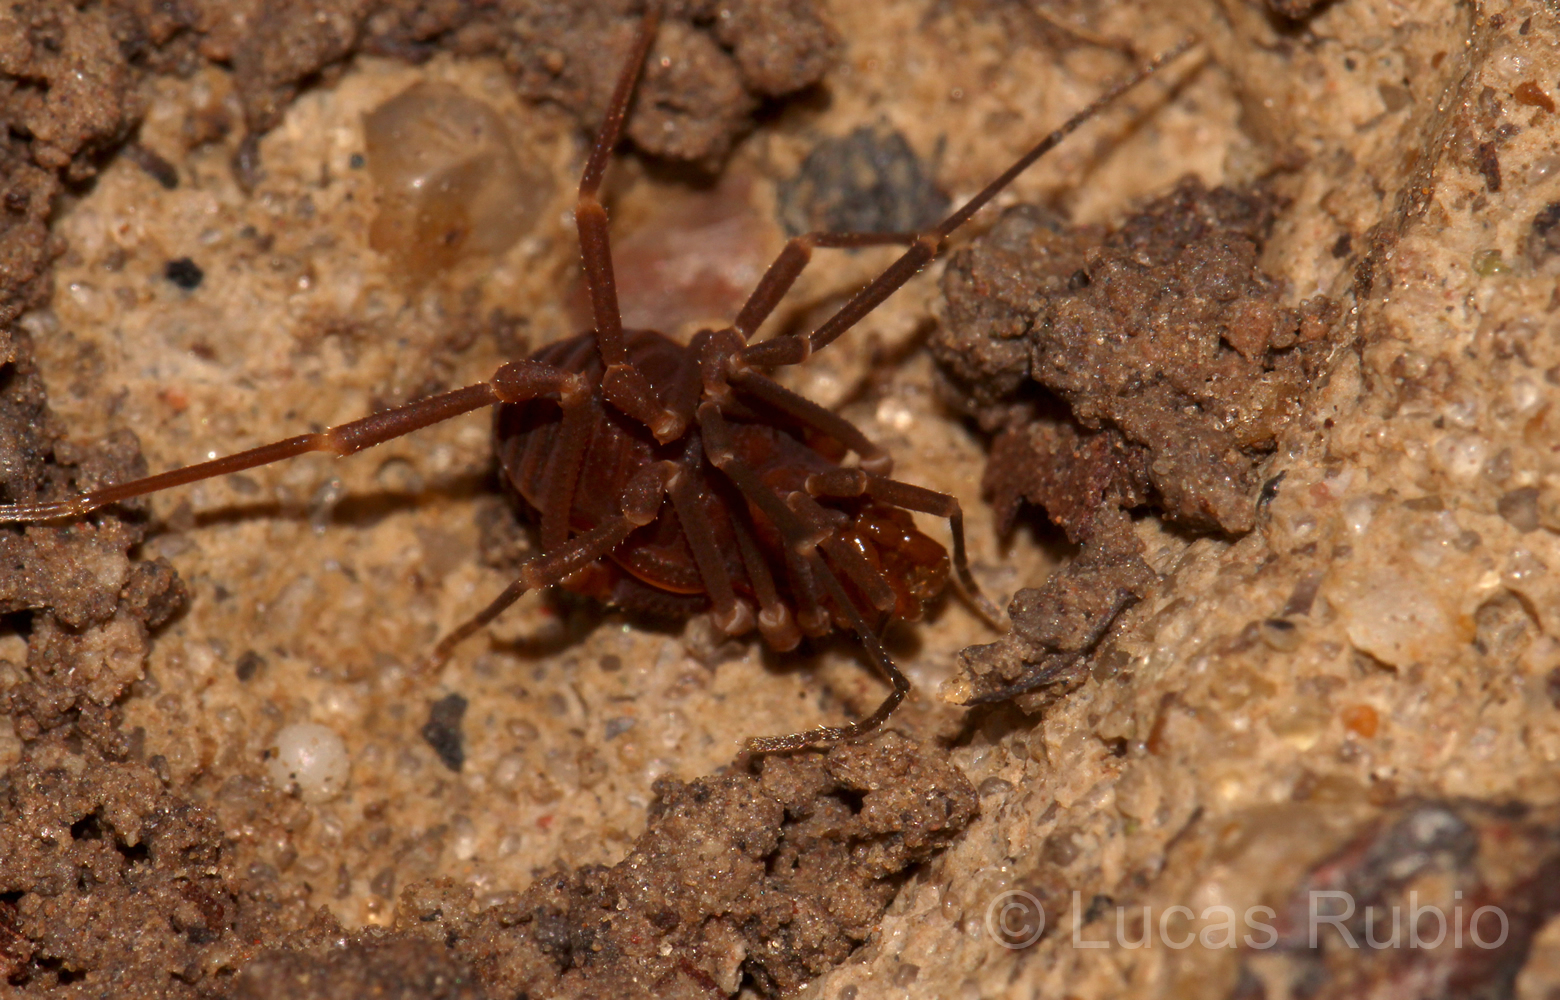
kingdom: Animalia
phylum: Arthropoda
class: Arachnida
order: Opiliones
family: Gonyleptidae
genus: Pachyloides
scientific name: Pachyloides thorellii
